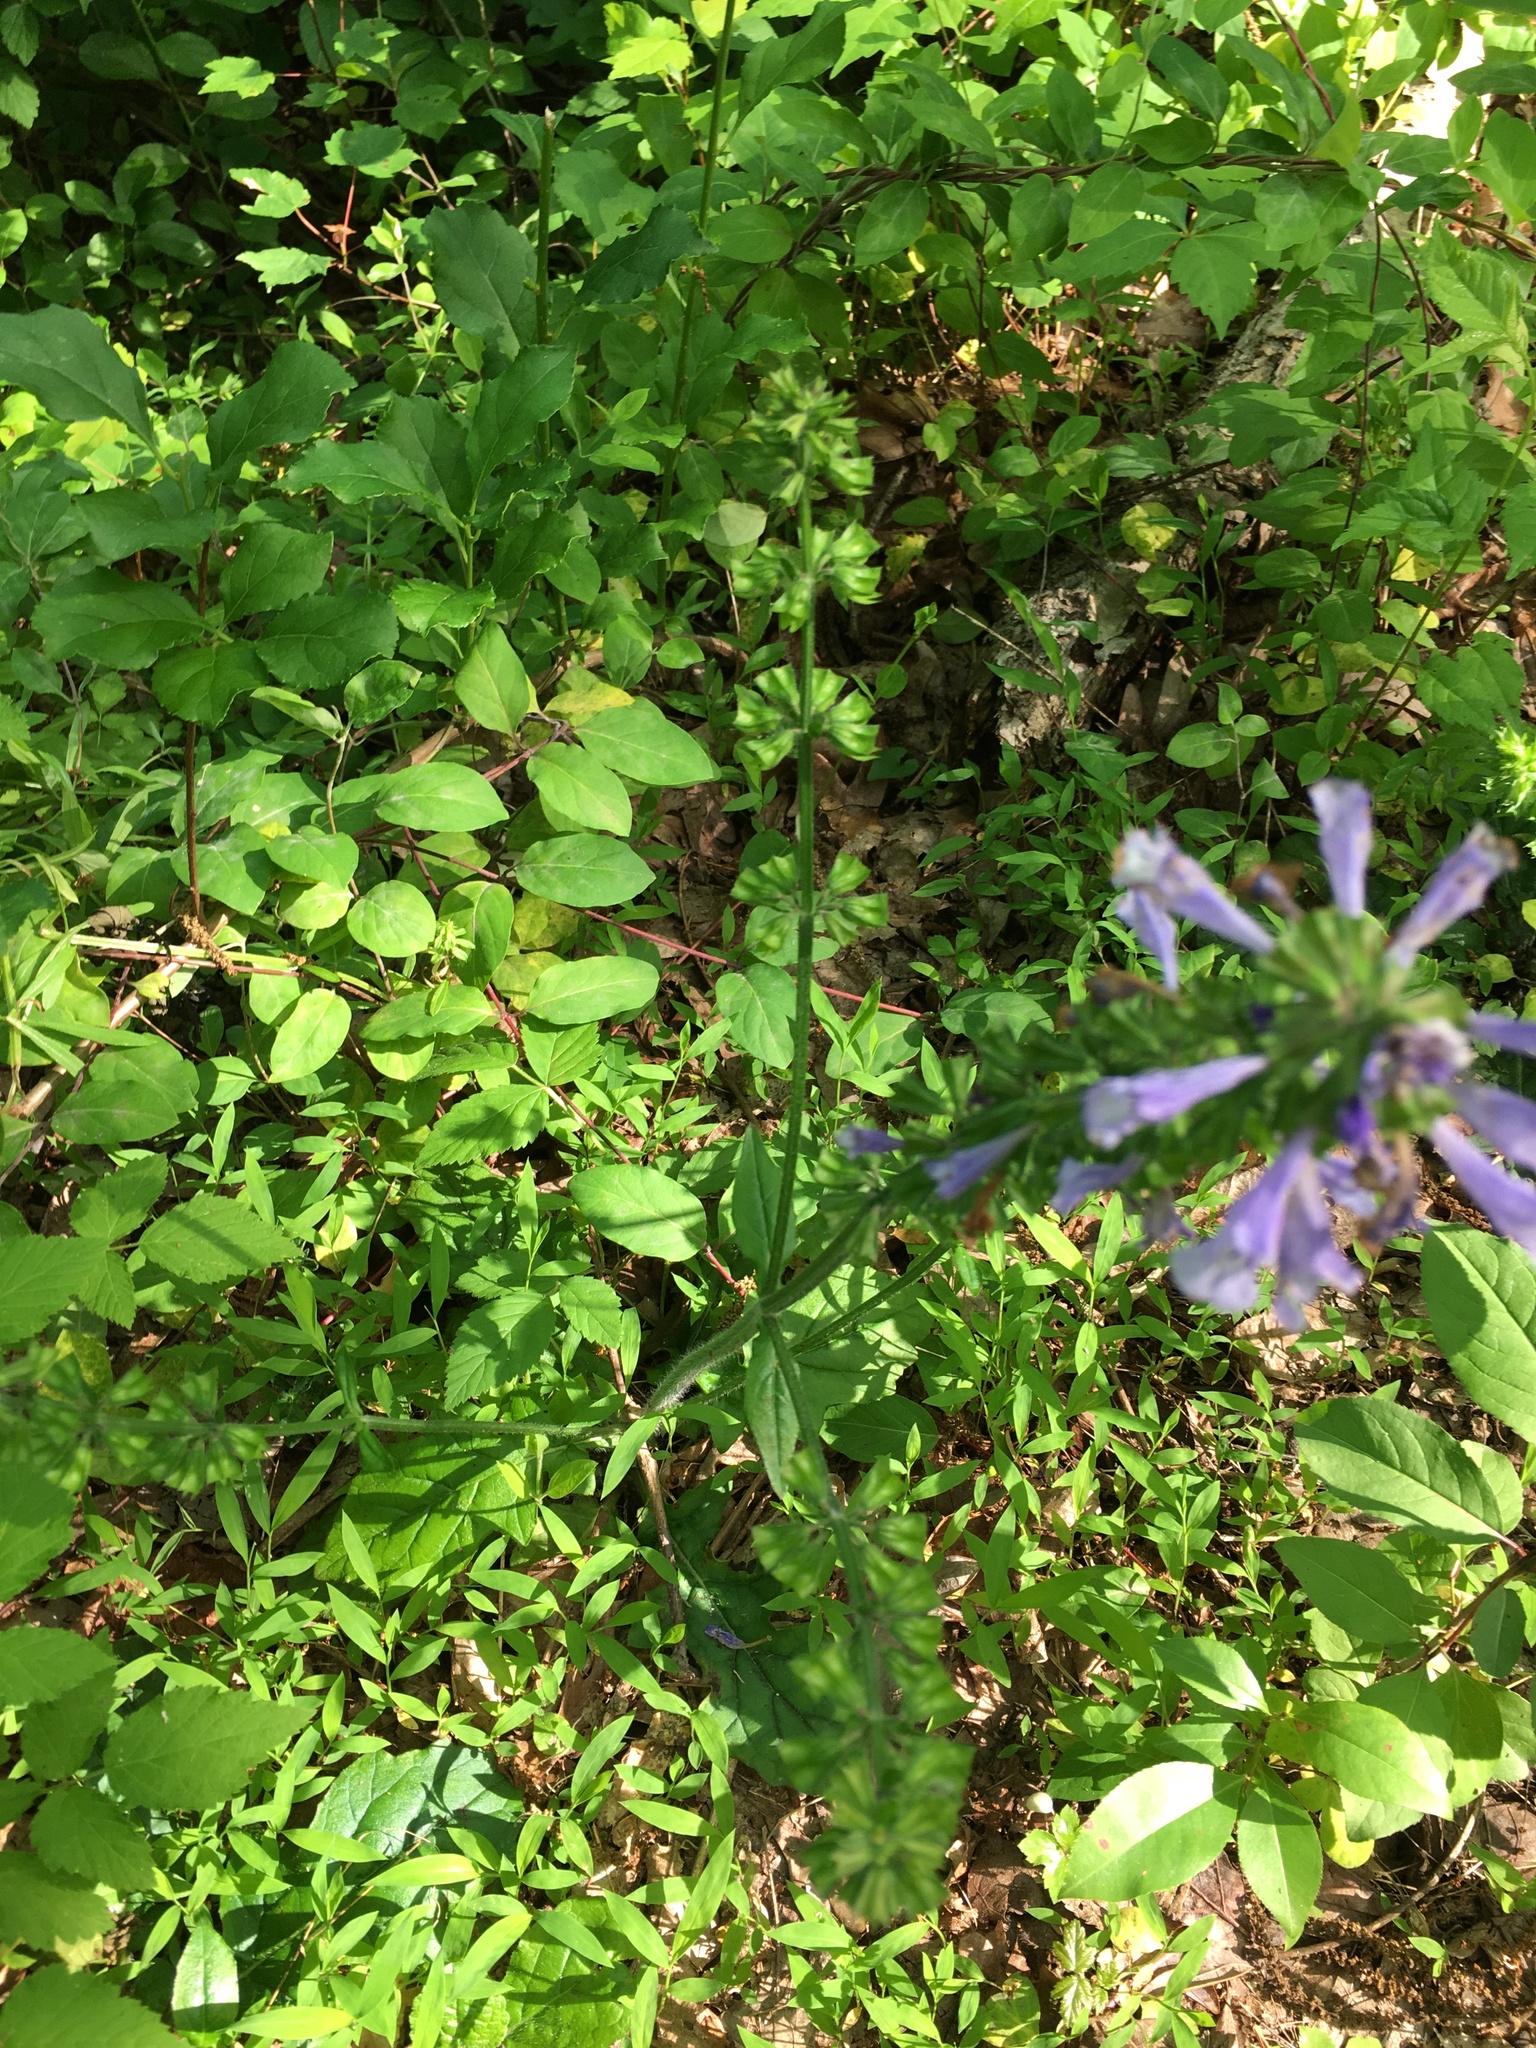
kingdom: Plantae
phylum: Tracheophyta
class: Magnoliopsida
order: Lamiales
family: Lamiaceae
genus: Salvia
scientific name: Salvia lyrata
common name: Cancerweed
